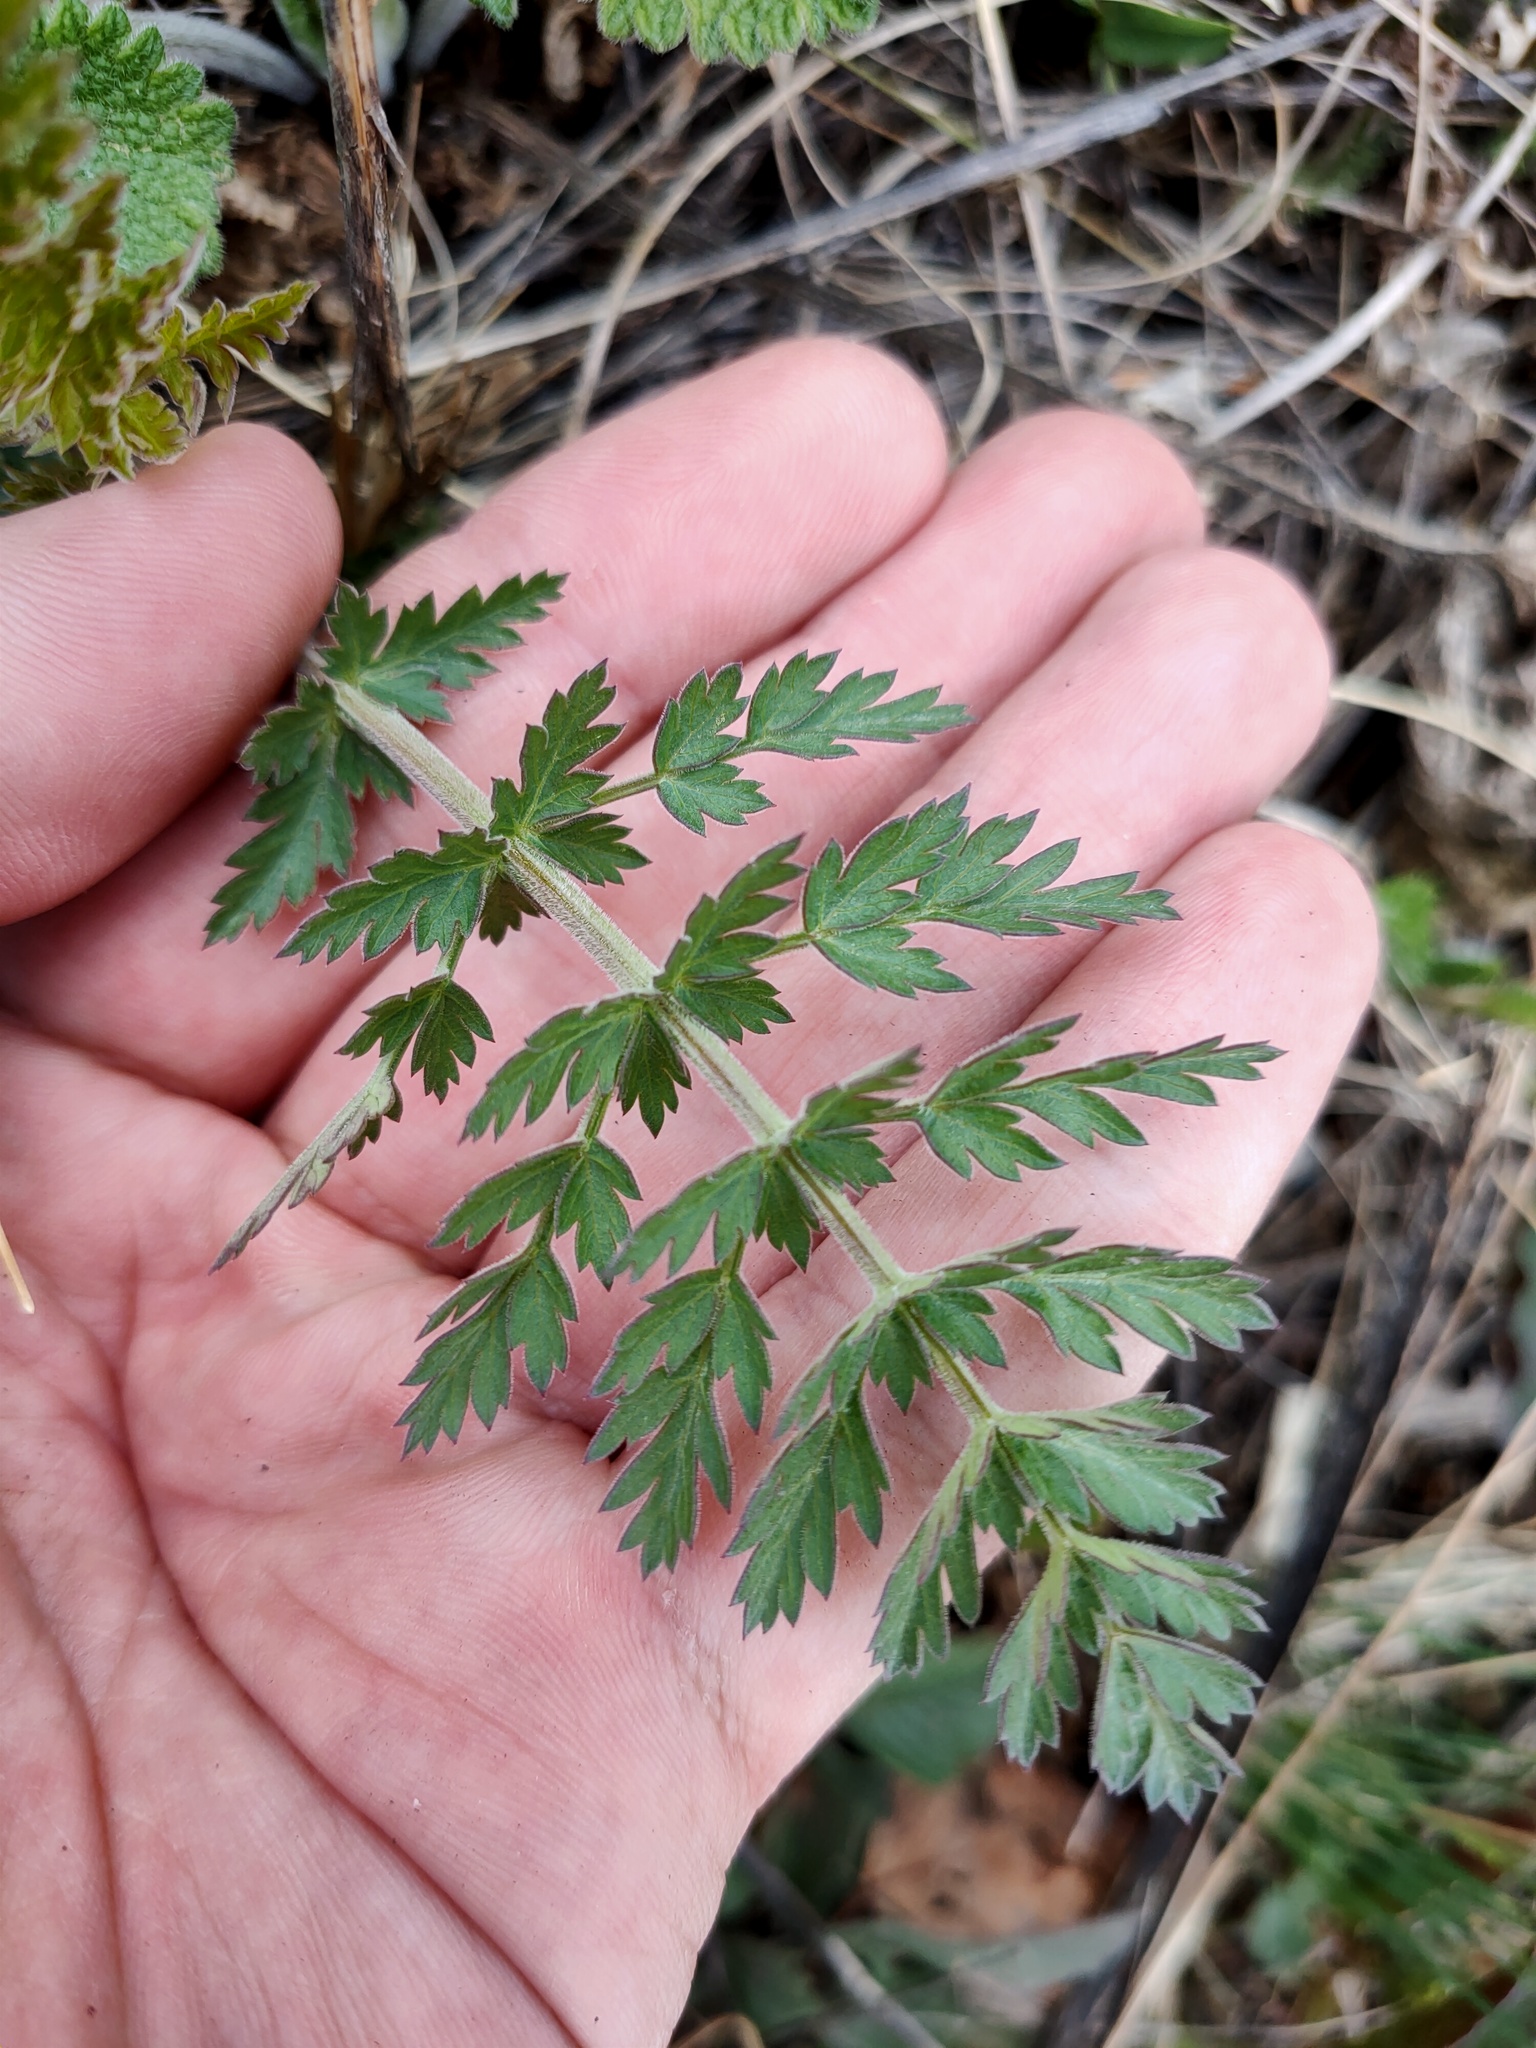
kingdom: Plantae
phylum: Tracheophyta
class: Magnoliopsida
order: Apiales
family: Apiaceae
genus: Seseli
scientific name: Seseli libanotis
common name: Mooncarrot
